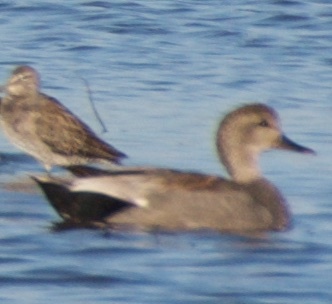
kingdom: Animalia
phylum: Chordata
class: Aves
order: Anseriformes
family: Anatidae
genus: Mareca
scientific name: Mareca strepera
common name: Gadwall
